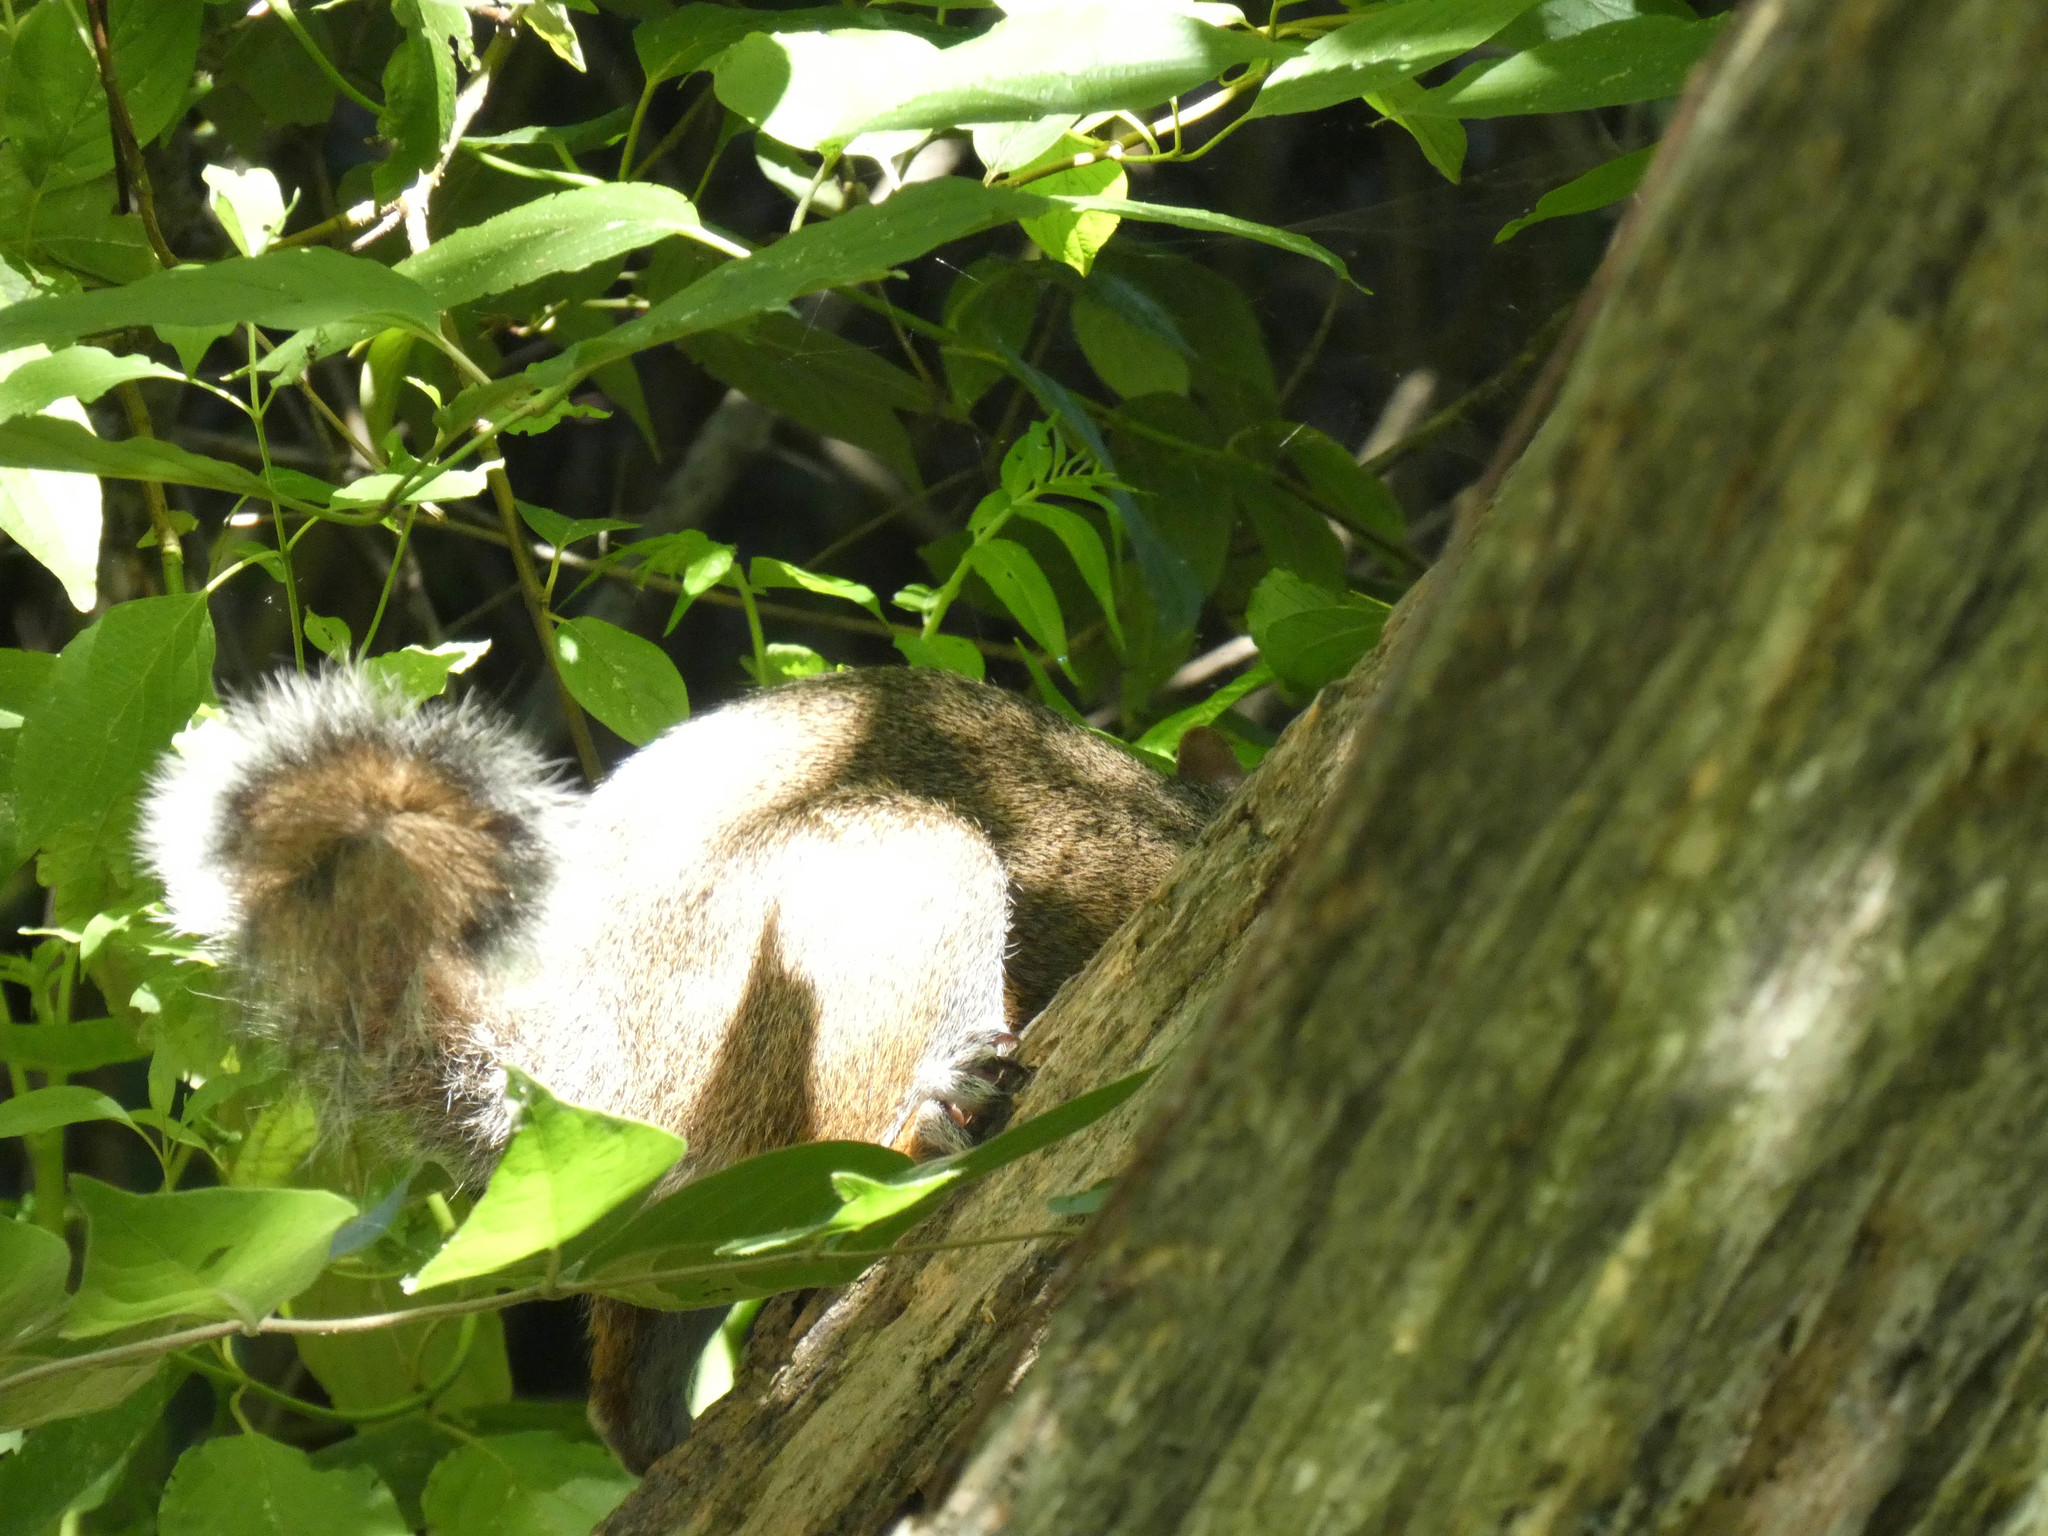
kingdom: Animalia
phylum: Chordata
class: Mammalia
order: Rodentia
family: Sciuridae
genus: Sciurus
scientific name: Sciurus carolinensis
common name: Eastern gray squirrel
